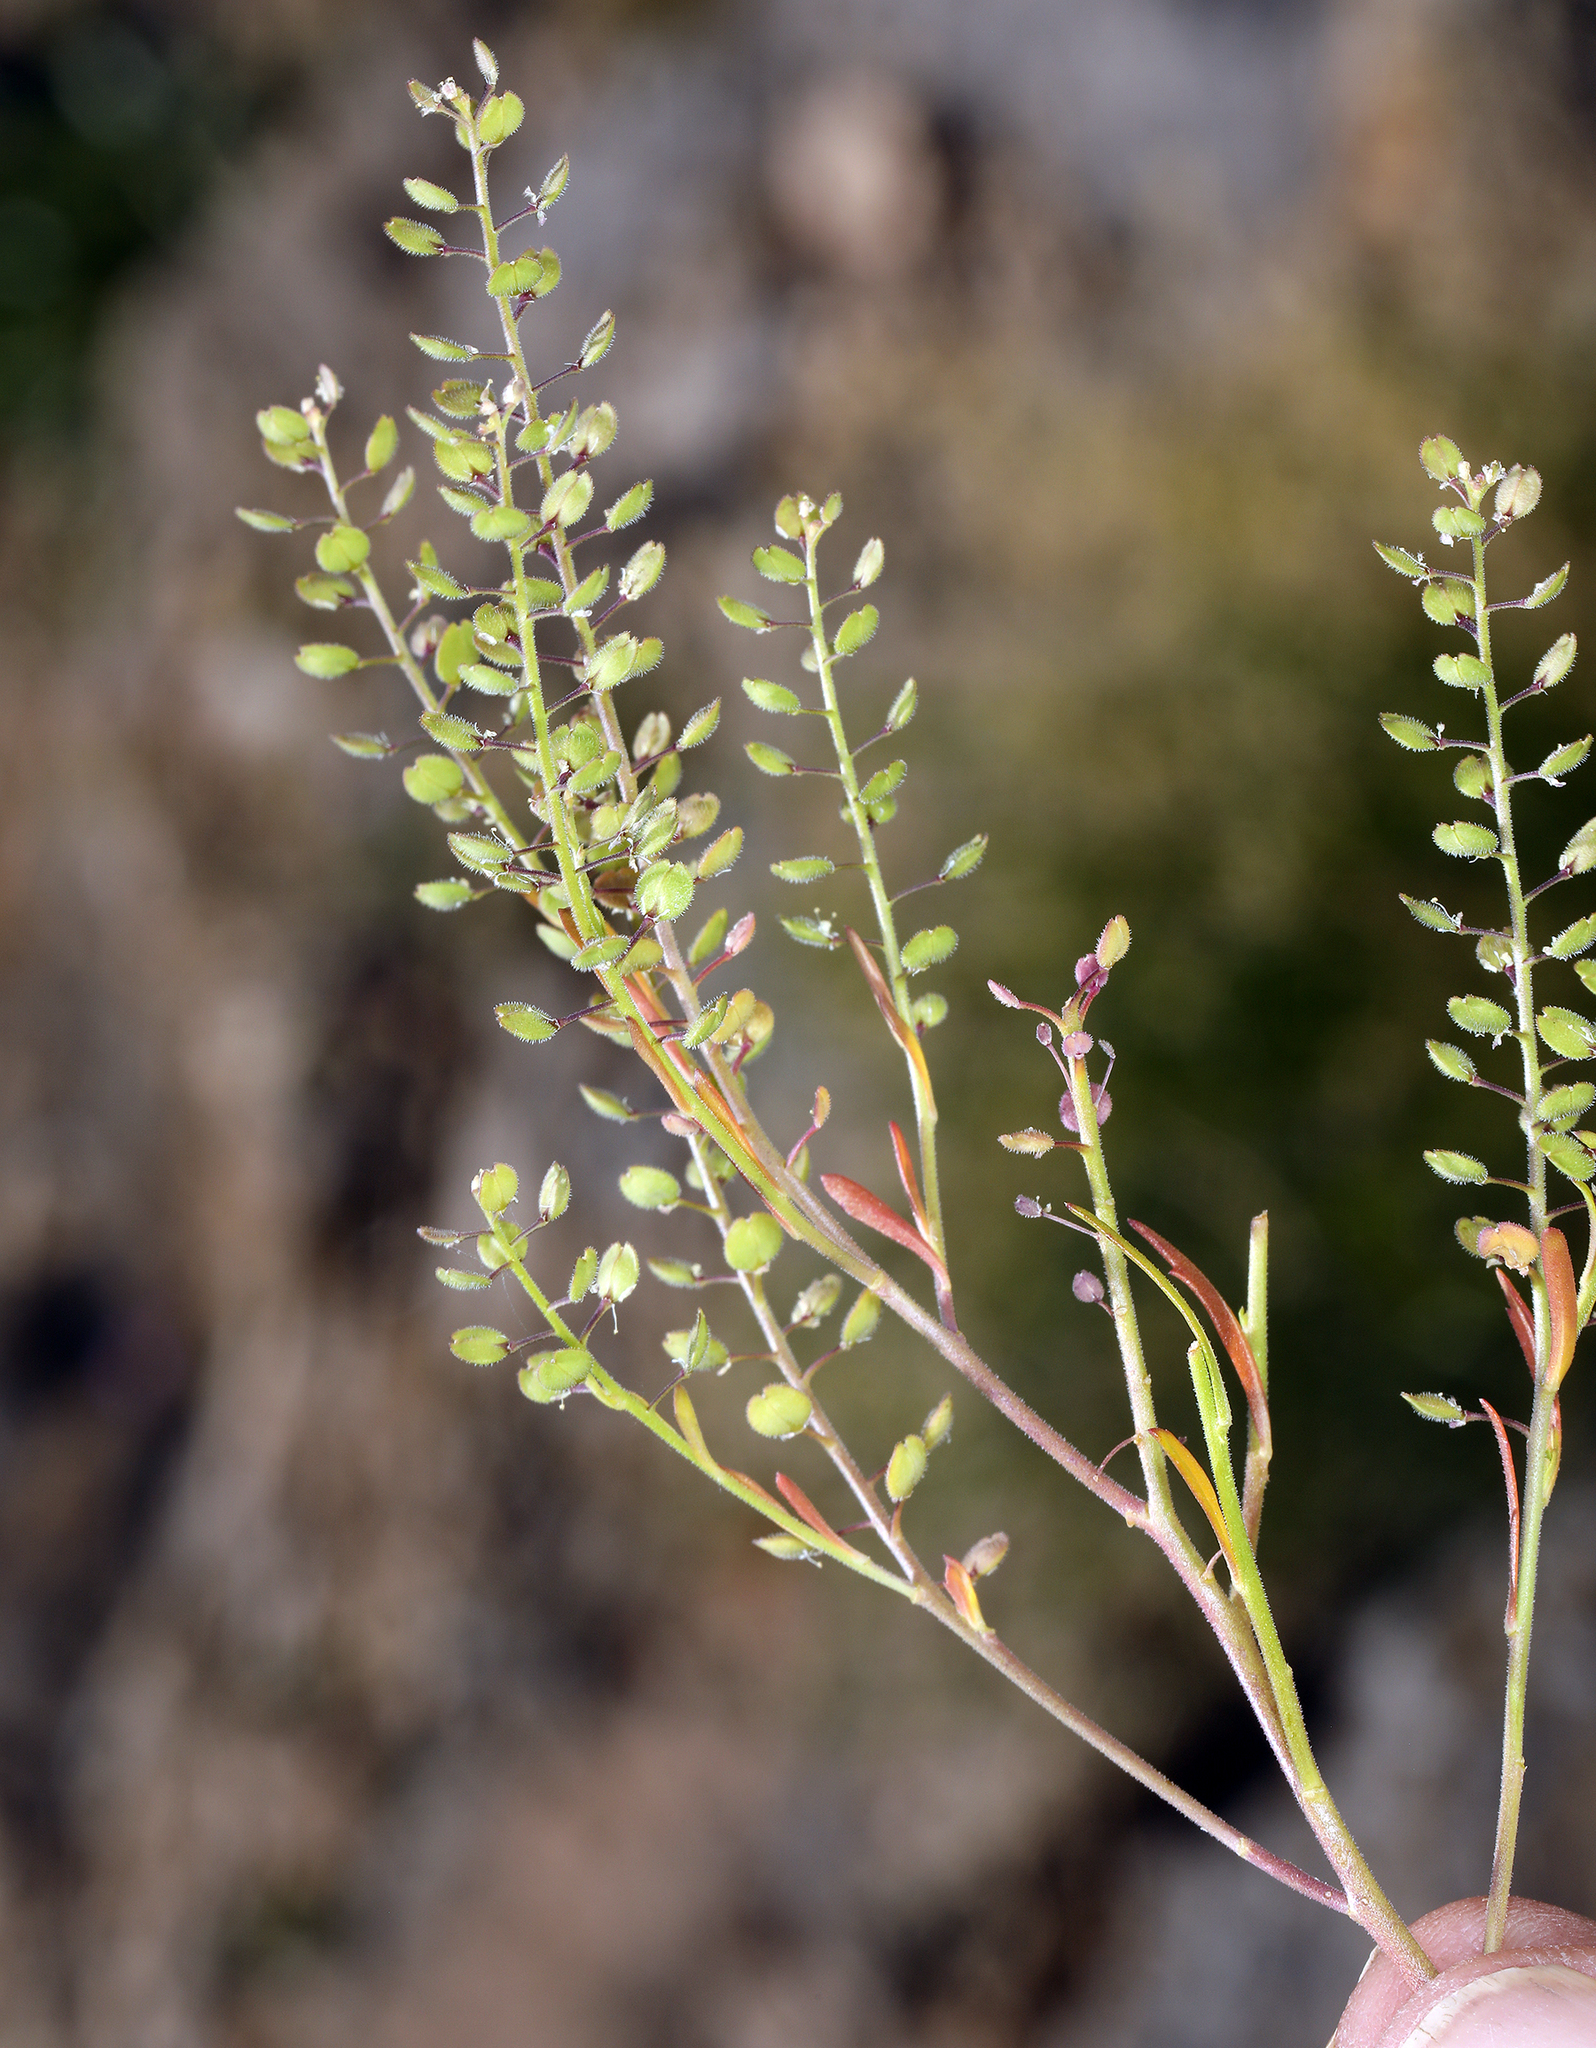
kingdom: Plantae
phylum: Tracheophyta
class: Magnoliopsida
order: Brassicales
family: Brassicaceae
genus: Lepidium
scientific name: Lepidium lasiocarpum
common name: Hairy-pod pepperwort
